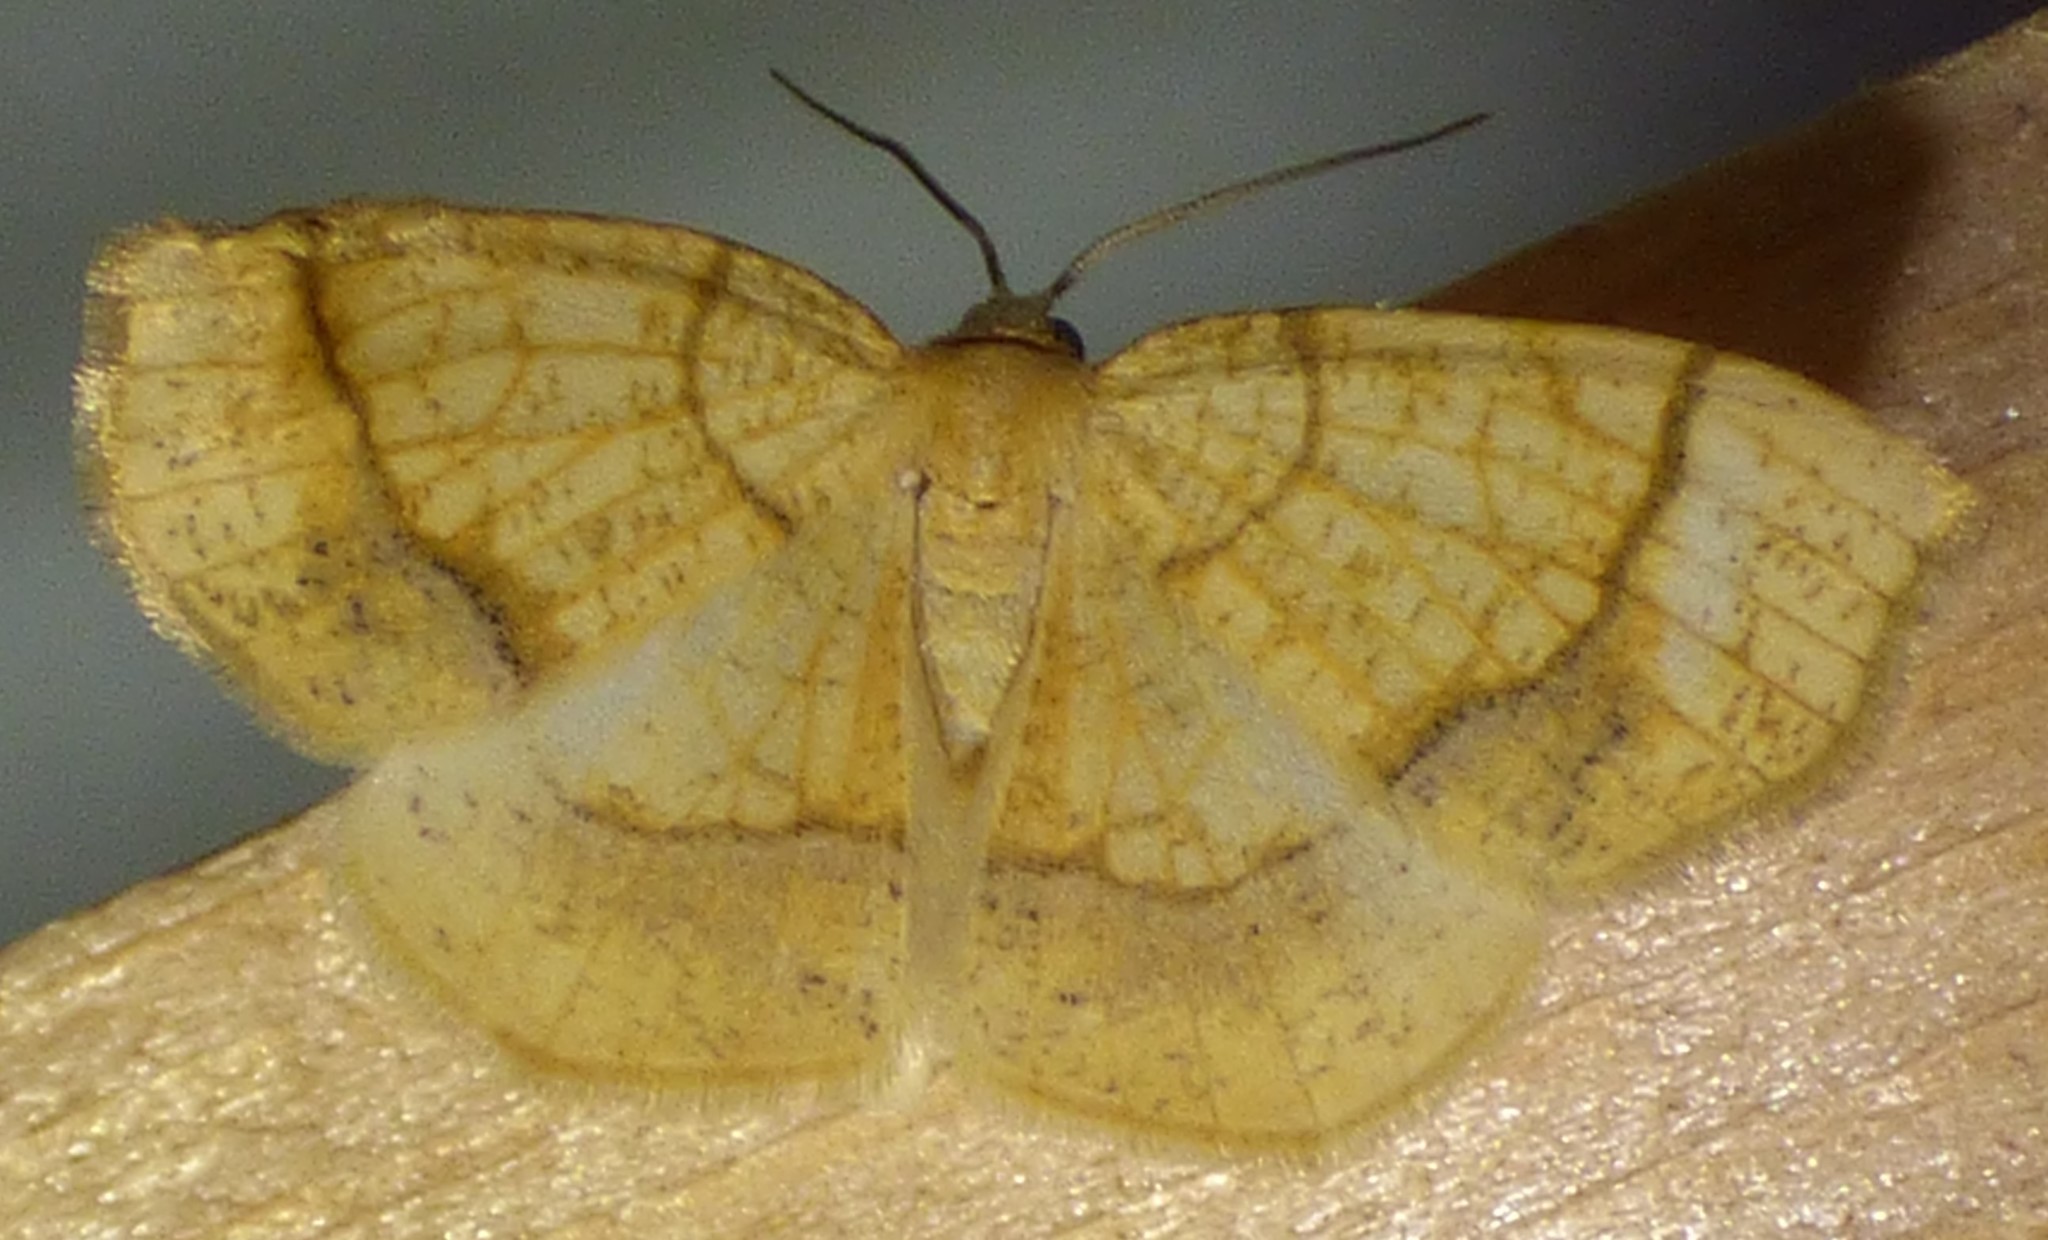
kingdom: Animalia
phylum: Arthropoda
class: Insecta
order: Lepidoptera
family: Geometridae
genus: Nematocampa
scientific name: Nematocampa resistaria
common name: Horned spanworm moth
